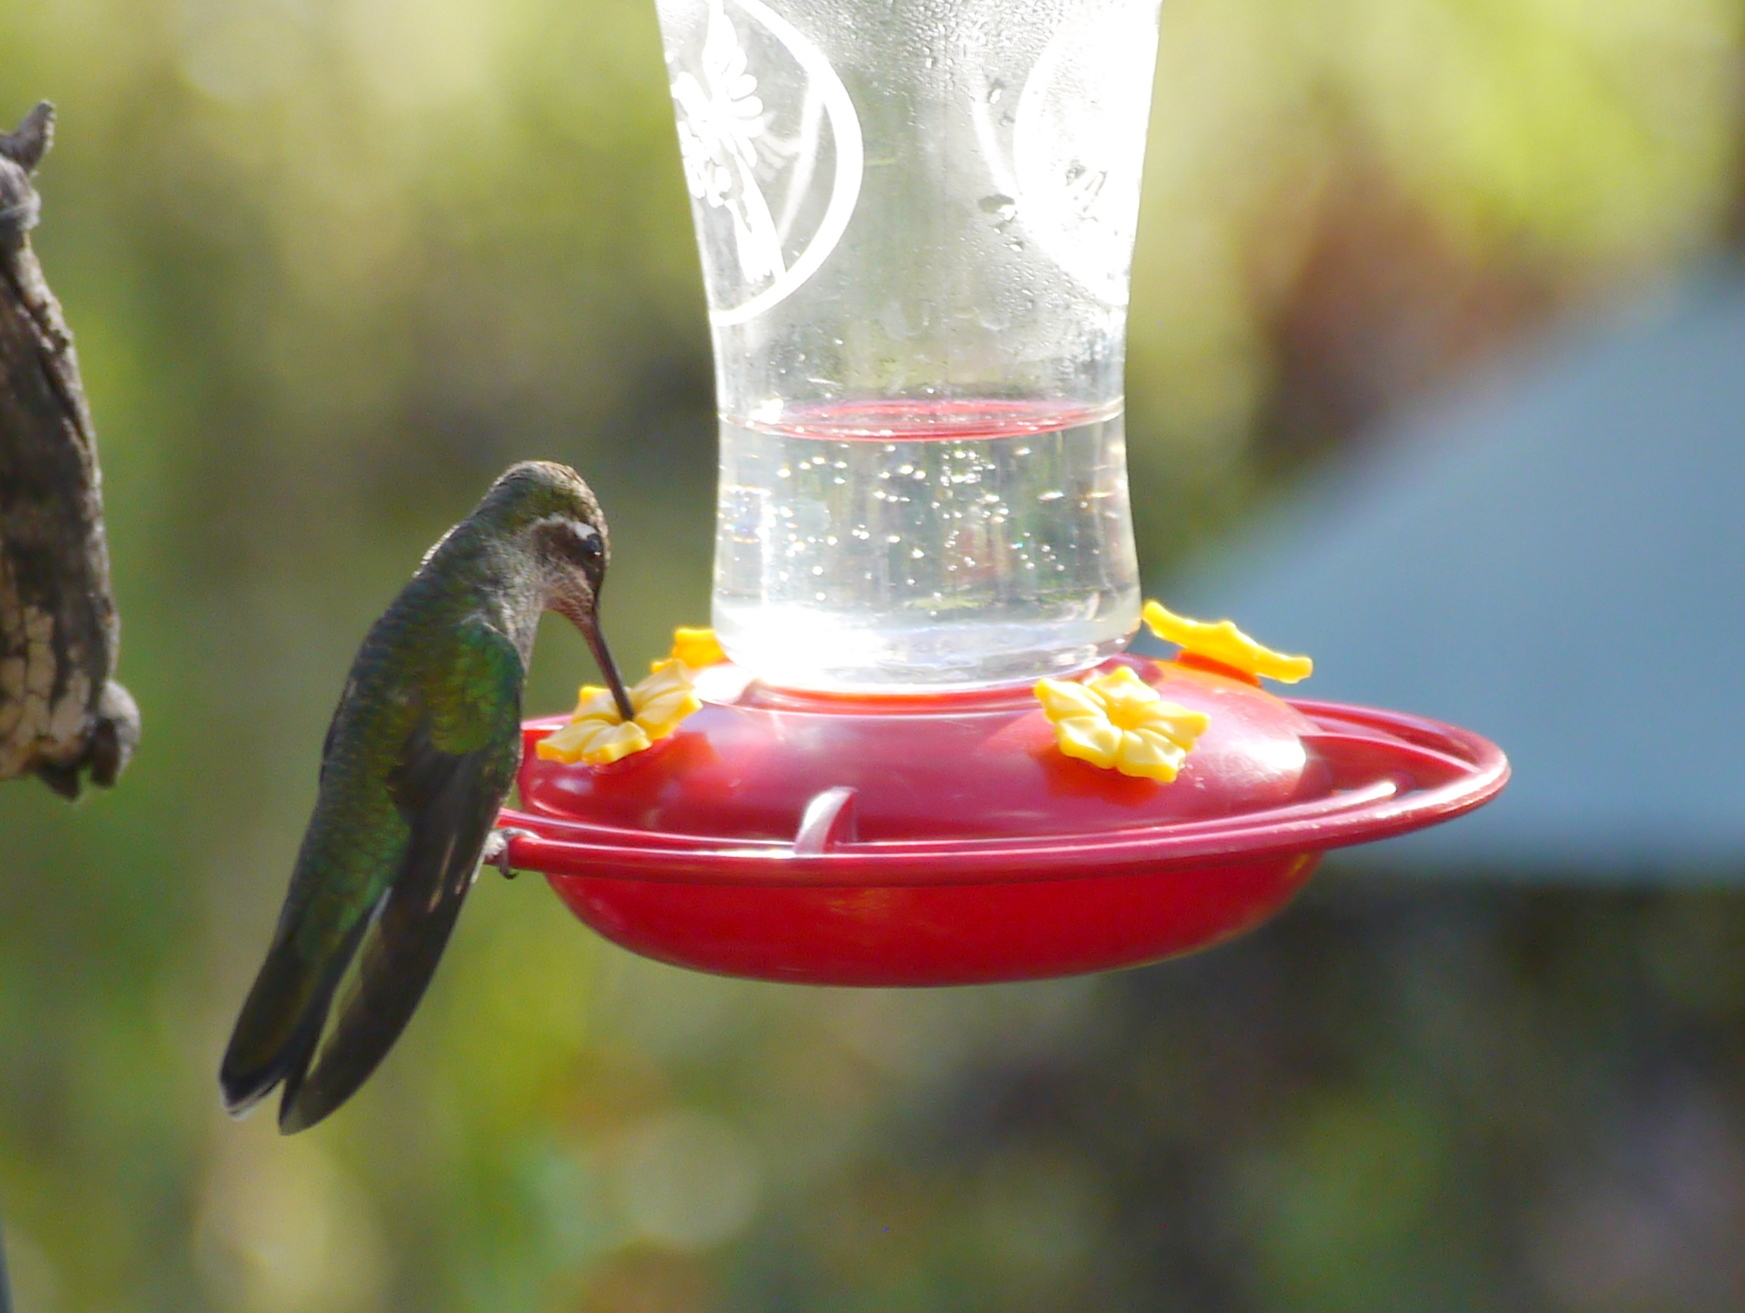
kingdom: Animalia
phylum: Chordata
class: Aves
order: Apodiformes
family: Trochilidae
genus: Eugenes
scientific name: Eugenes fulgens
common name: Magnificent hummingbird
